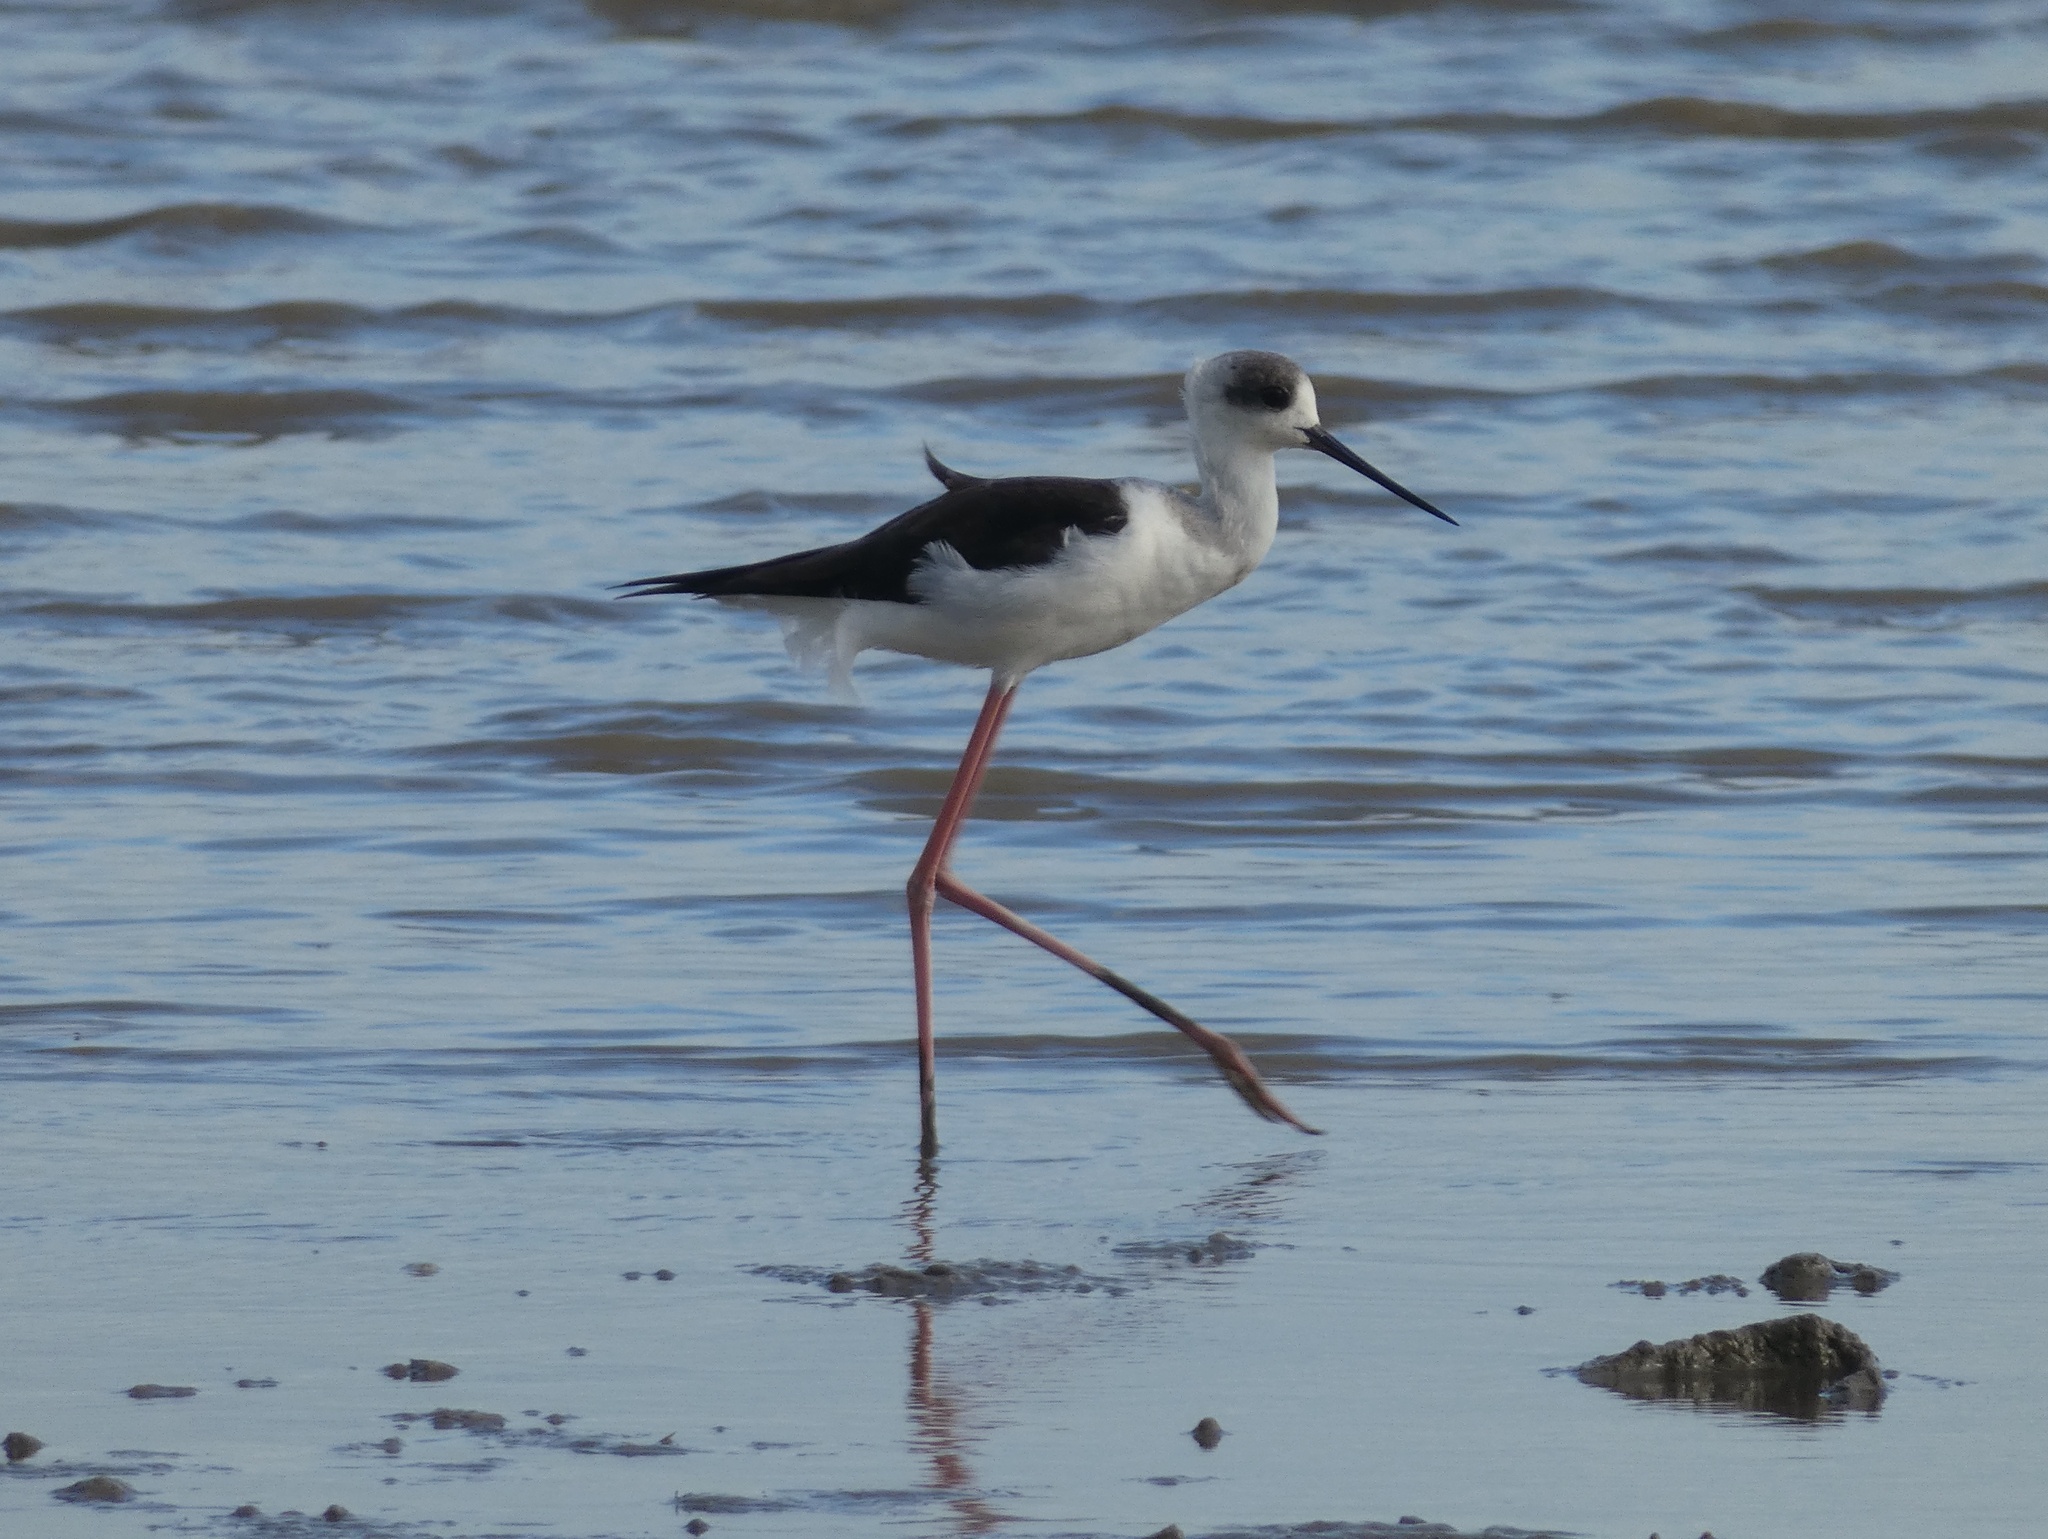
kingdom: Animalia
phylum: Chordata
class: Aves
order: Charadriiformes
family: Recurvirostridae
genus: Himantopus
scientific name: Himantopus leucocephalus
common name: White-headed stilt
